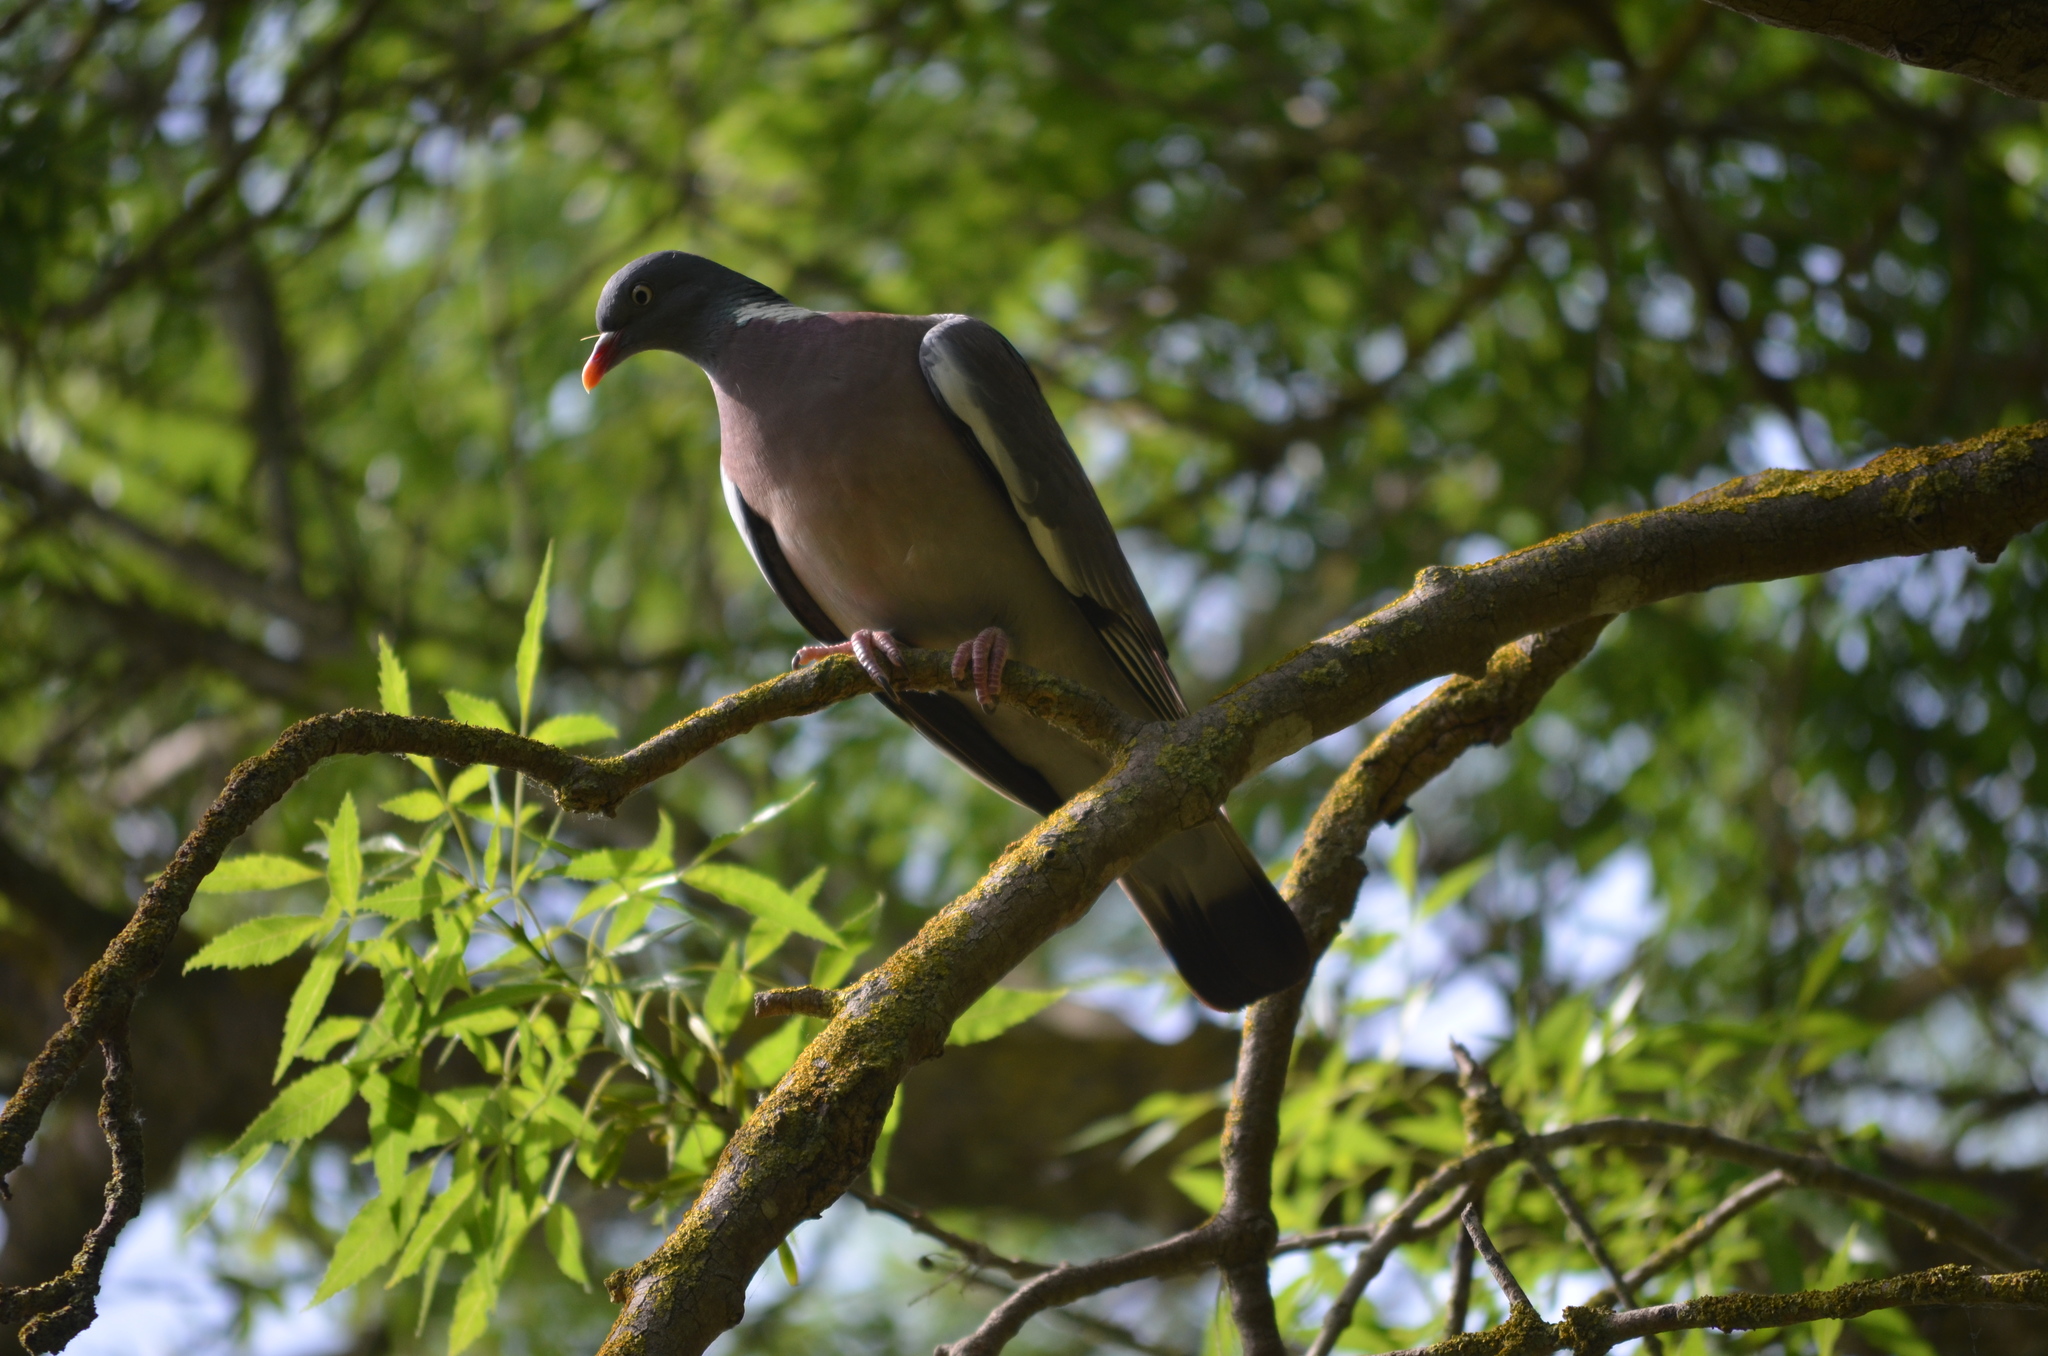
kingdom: Animalia
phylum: Chordata
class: Aves
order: Columbiformes
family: Columbidae
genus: Columba
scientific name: Columba palumbus
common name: Common wood pigeon
